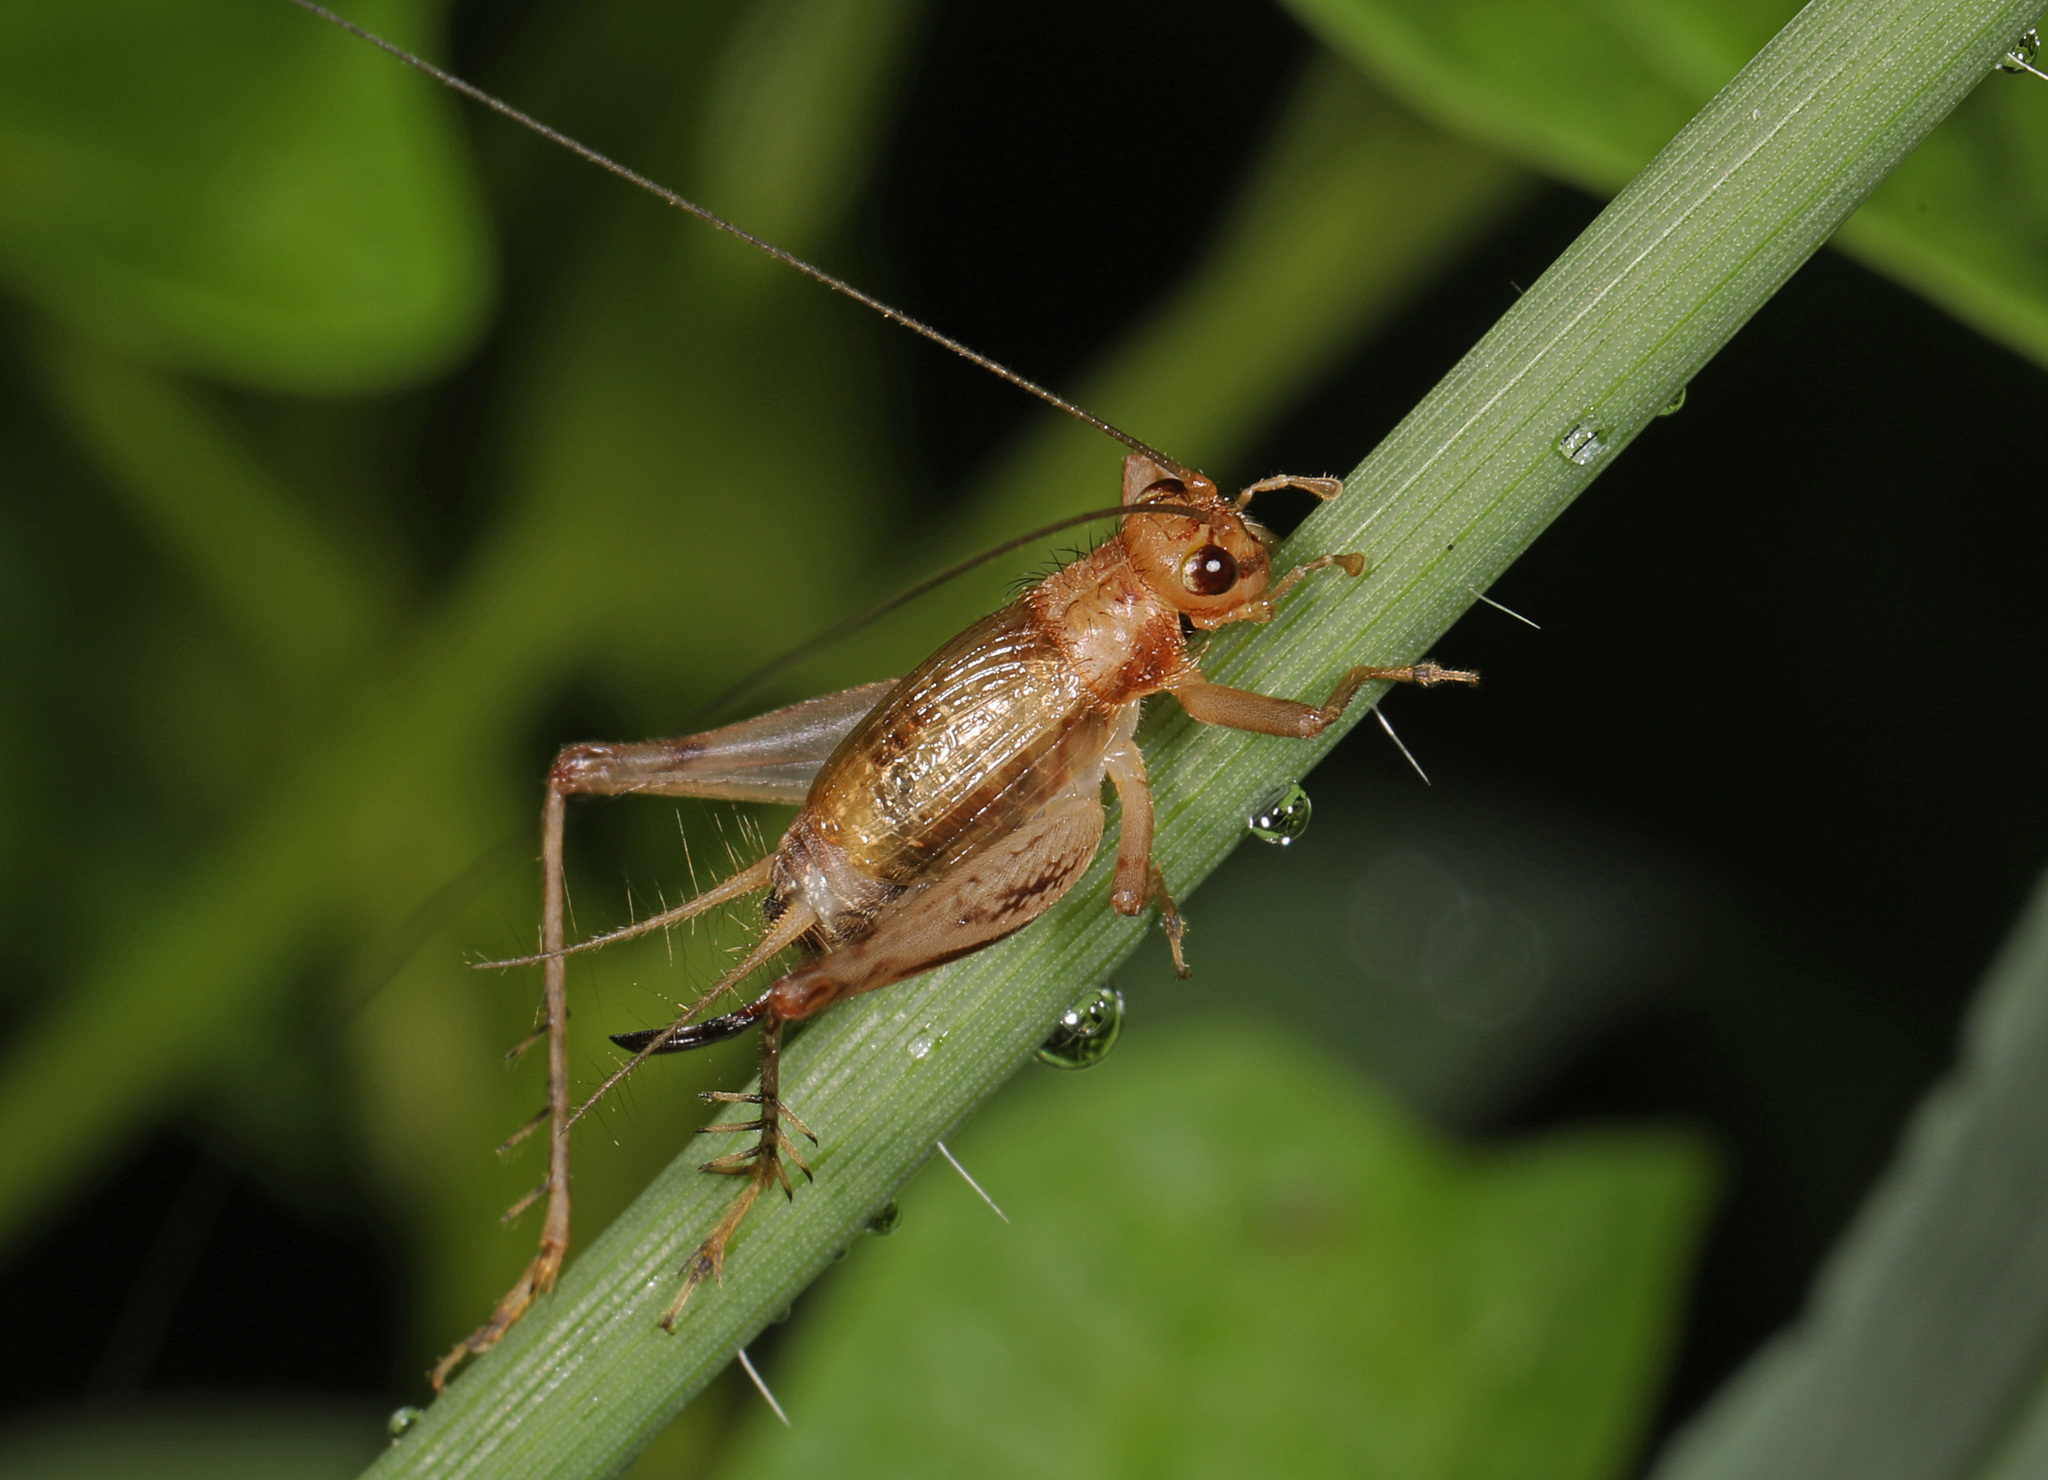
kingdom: Animalia
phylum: Arthropoda
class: Insecta
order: Orthoptera
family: Trigonidiidae
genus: Anaxipha
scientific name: Anaxipha exigua
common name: Say's bush cricket
